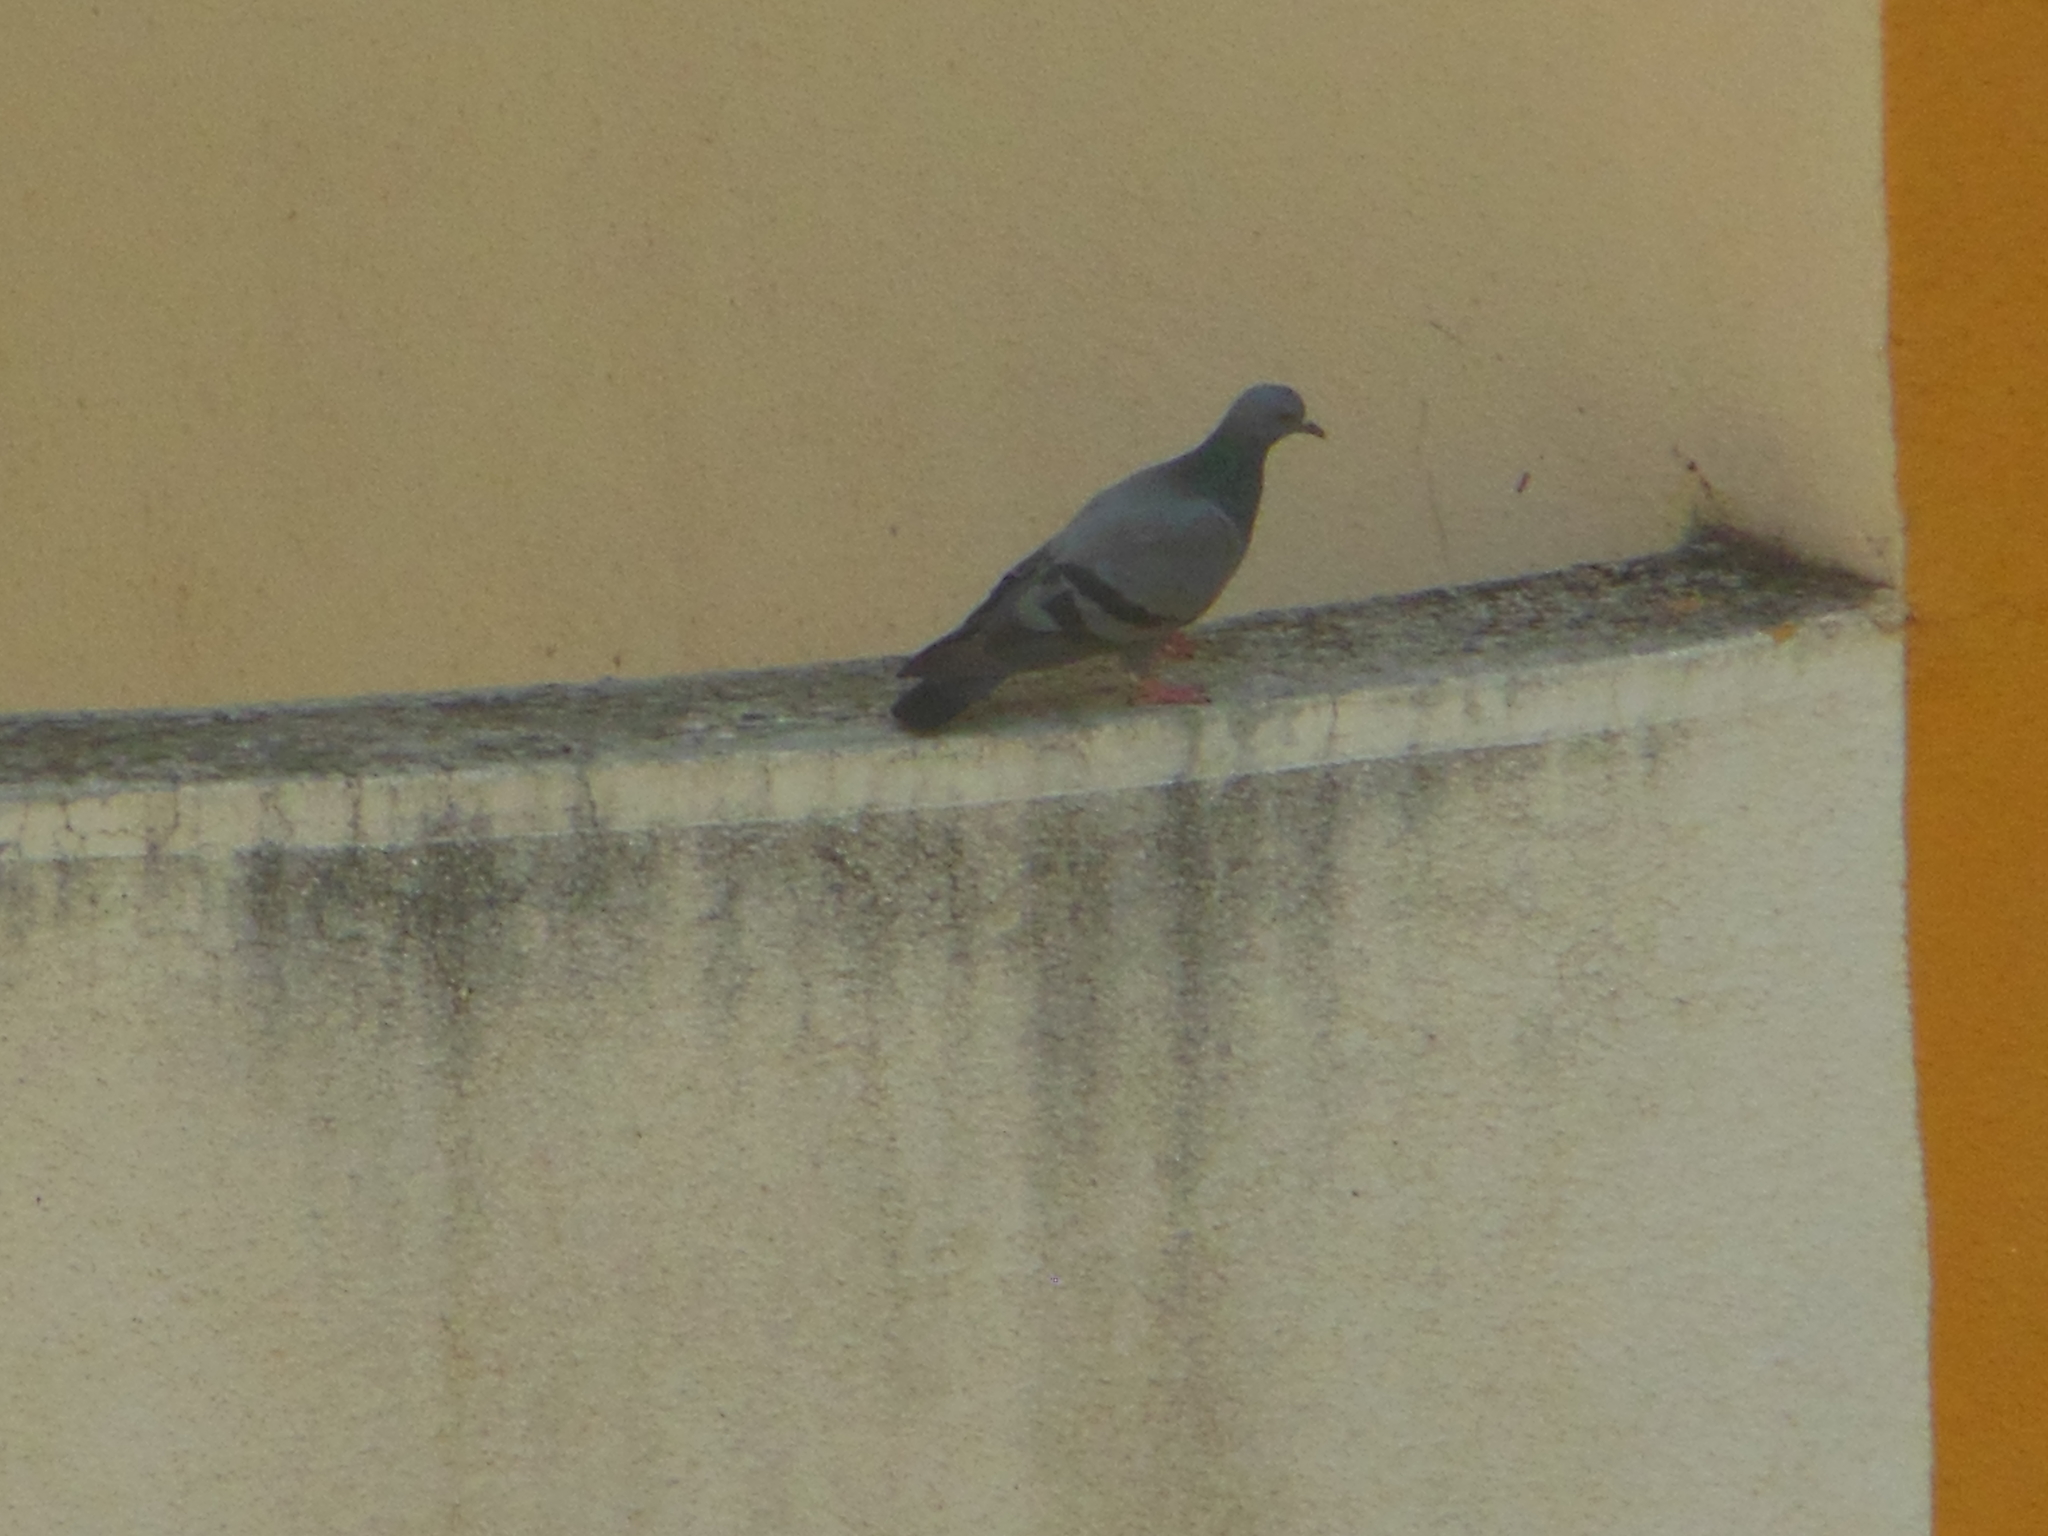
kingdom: Animalia
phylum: Chordata
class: Aves
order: Columbiformes
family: Columbidae
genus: Columba
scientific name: Columba livia
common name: Rock pigeon
